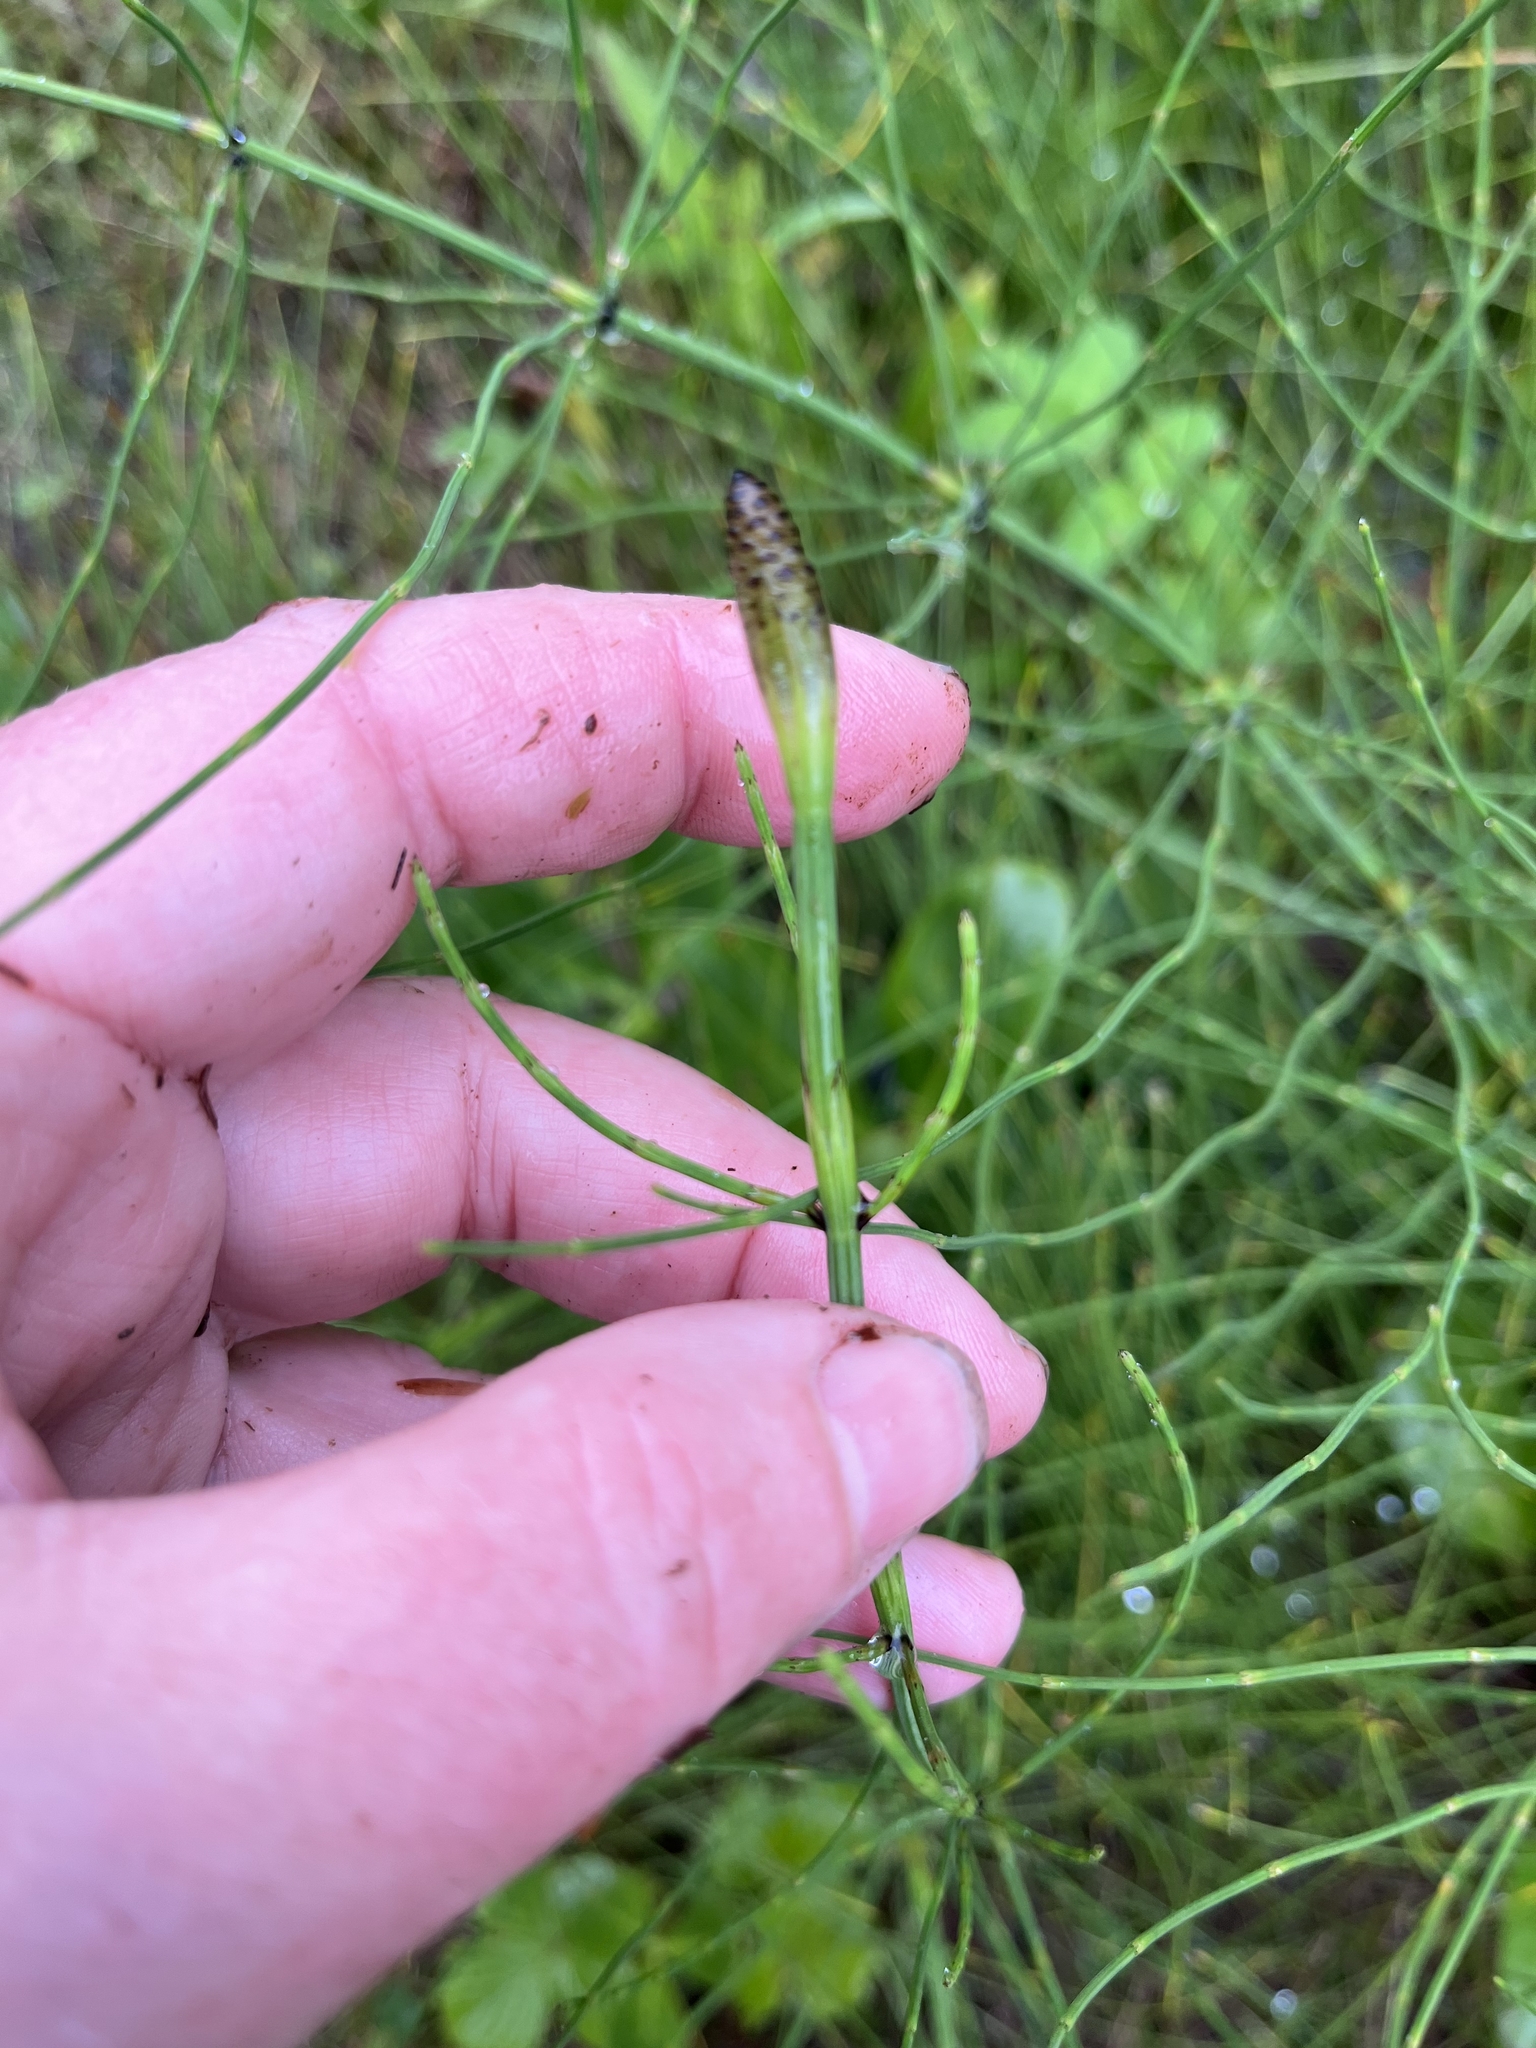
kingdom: Plantae
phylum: Tracheophyta
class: Polypodiopsida
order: Equisetales
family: Equisetaceae
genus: Equisetum
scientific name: Equisetum palustre
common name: Marsh horsetail
